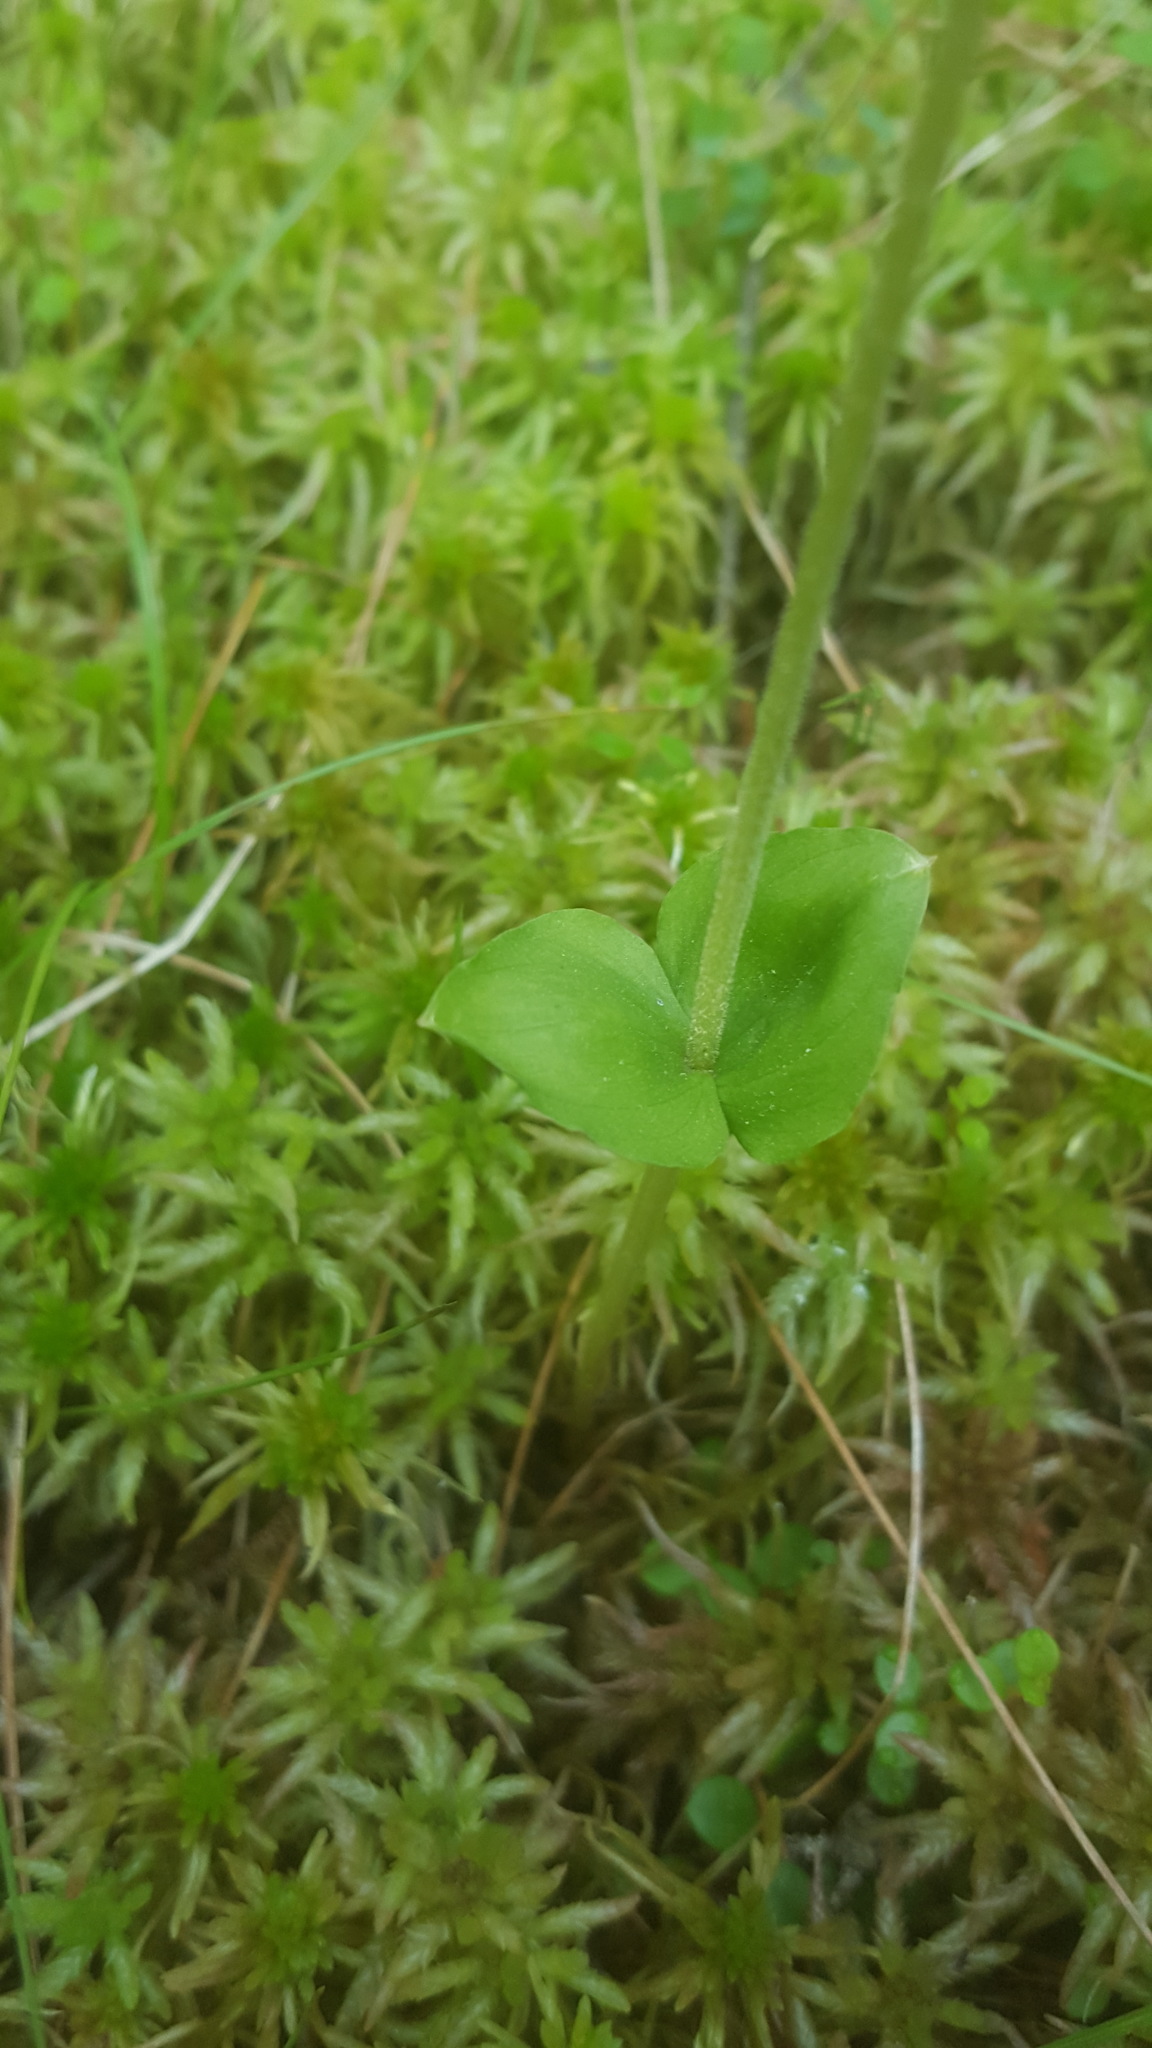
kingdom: Plantae
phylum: Tracheophyta
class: Liliopsida
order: Asparagales
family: Orchidaceae
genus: Neottia
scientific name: Neottia cordata
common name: Lesser twayblade
